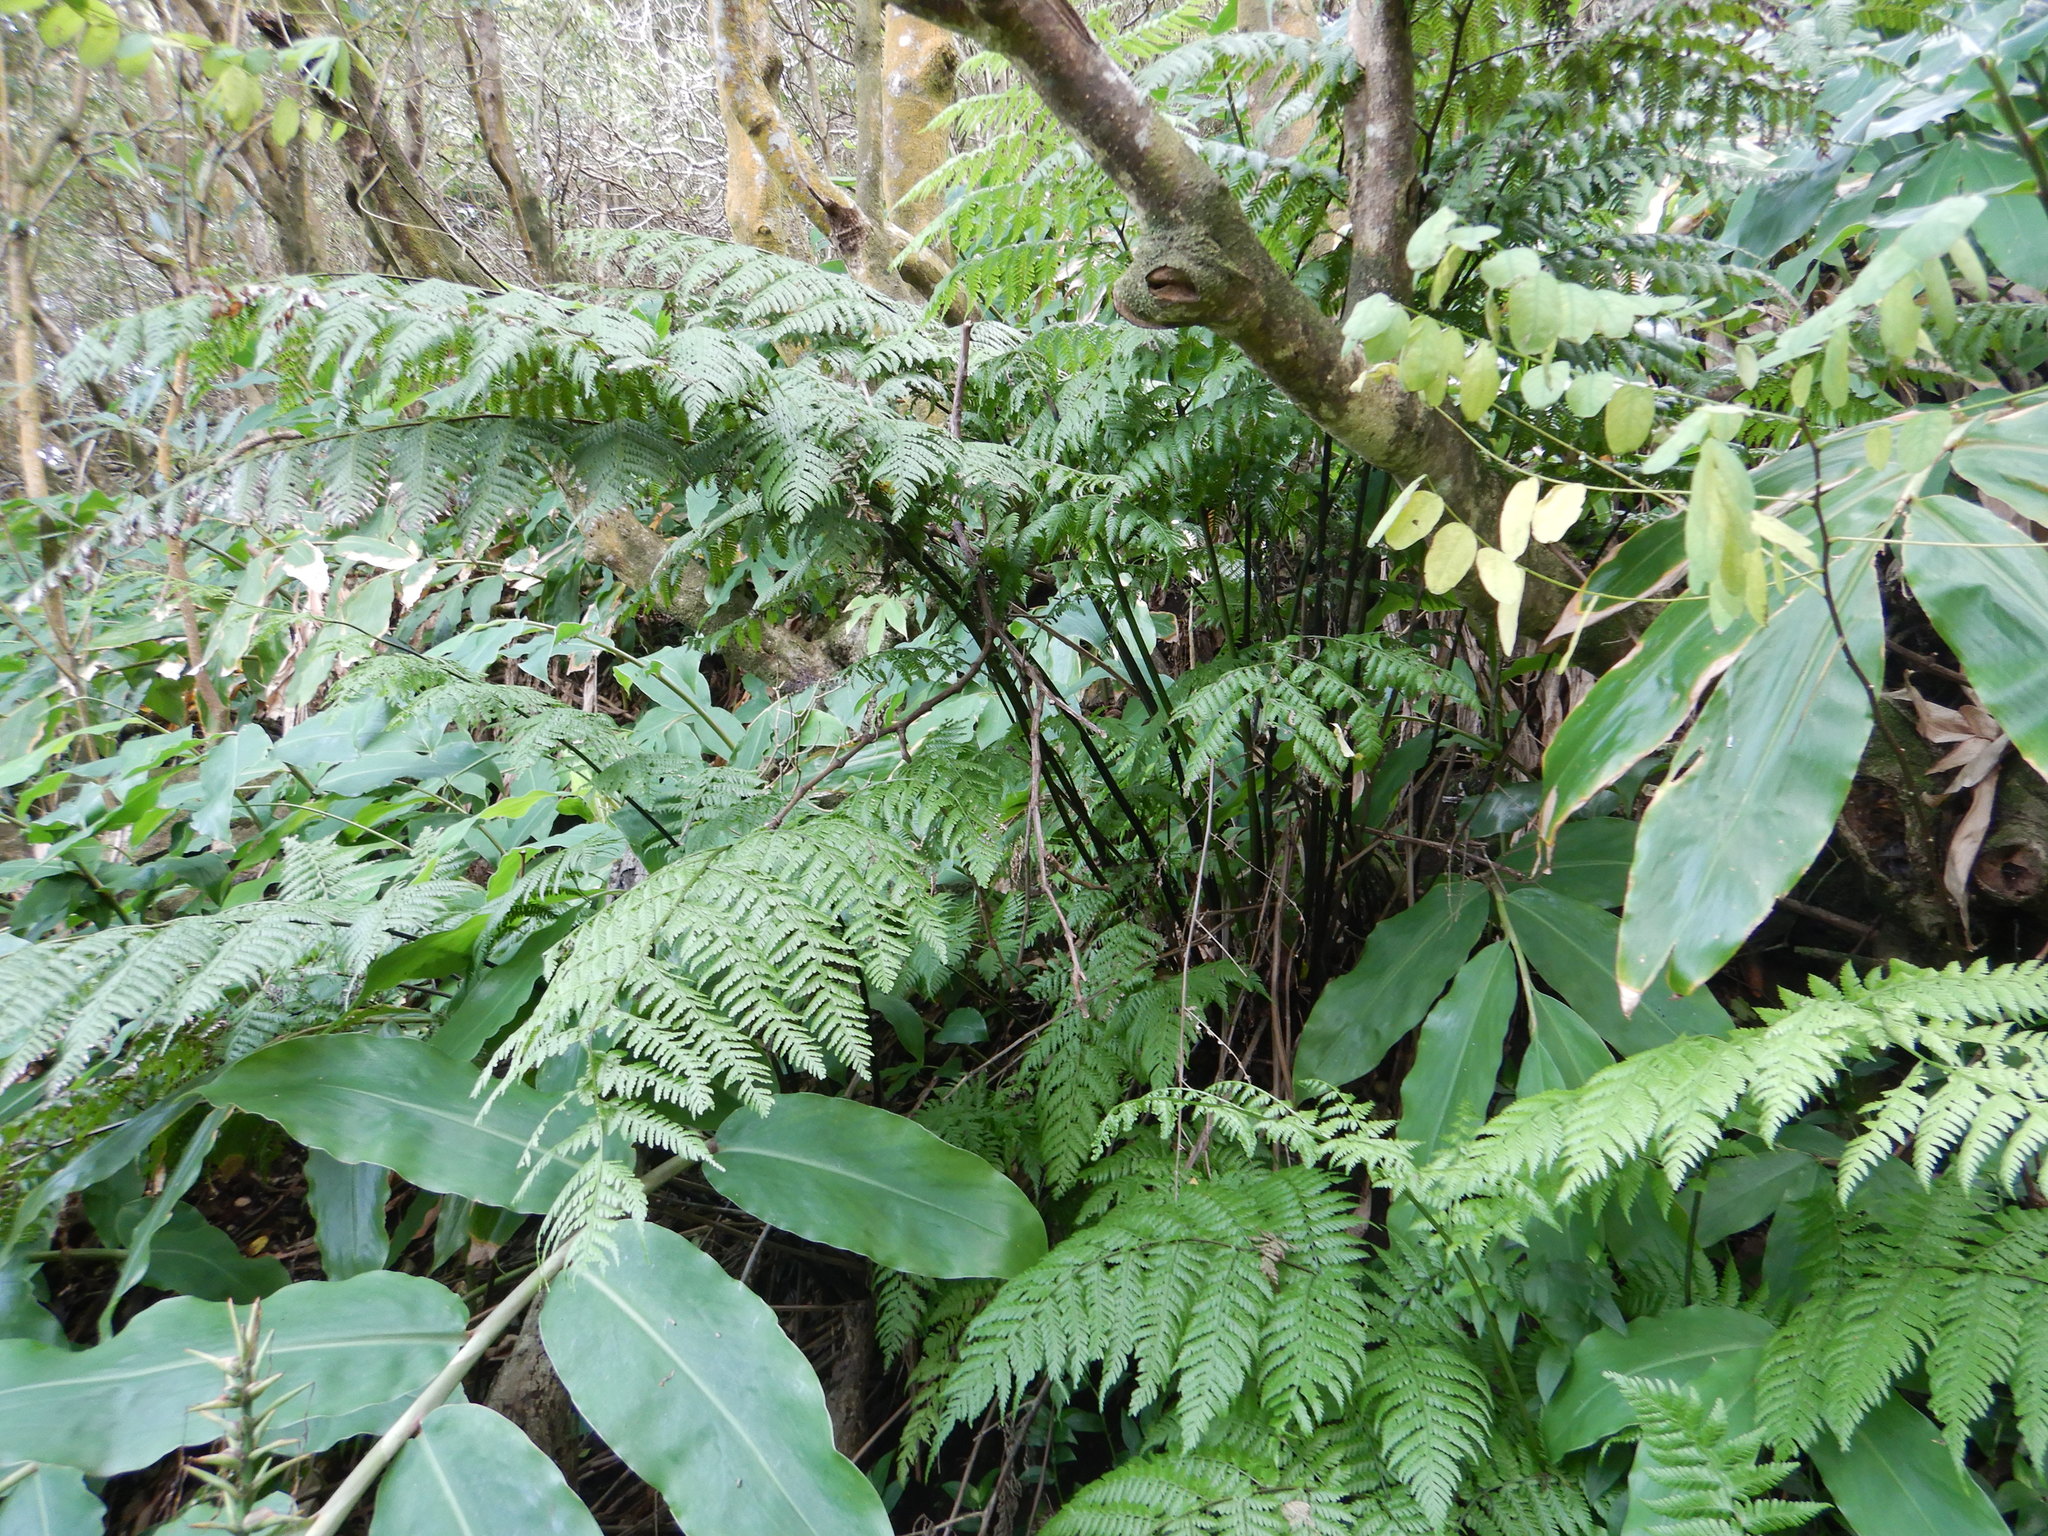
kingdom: Plantae
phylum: Tracheophyta
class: Polypodiopsida
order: Polypodiales
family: Athyriaceae
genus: Diplazium
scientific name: Diplazium caudatum
